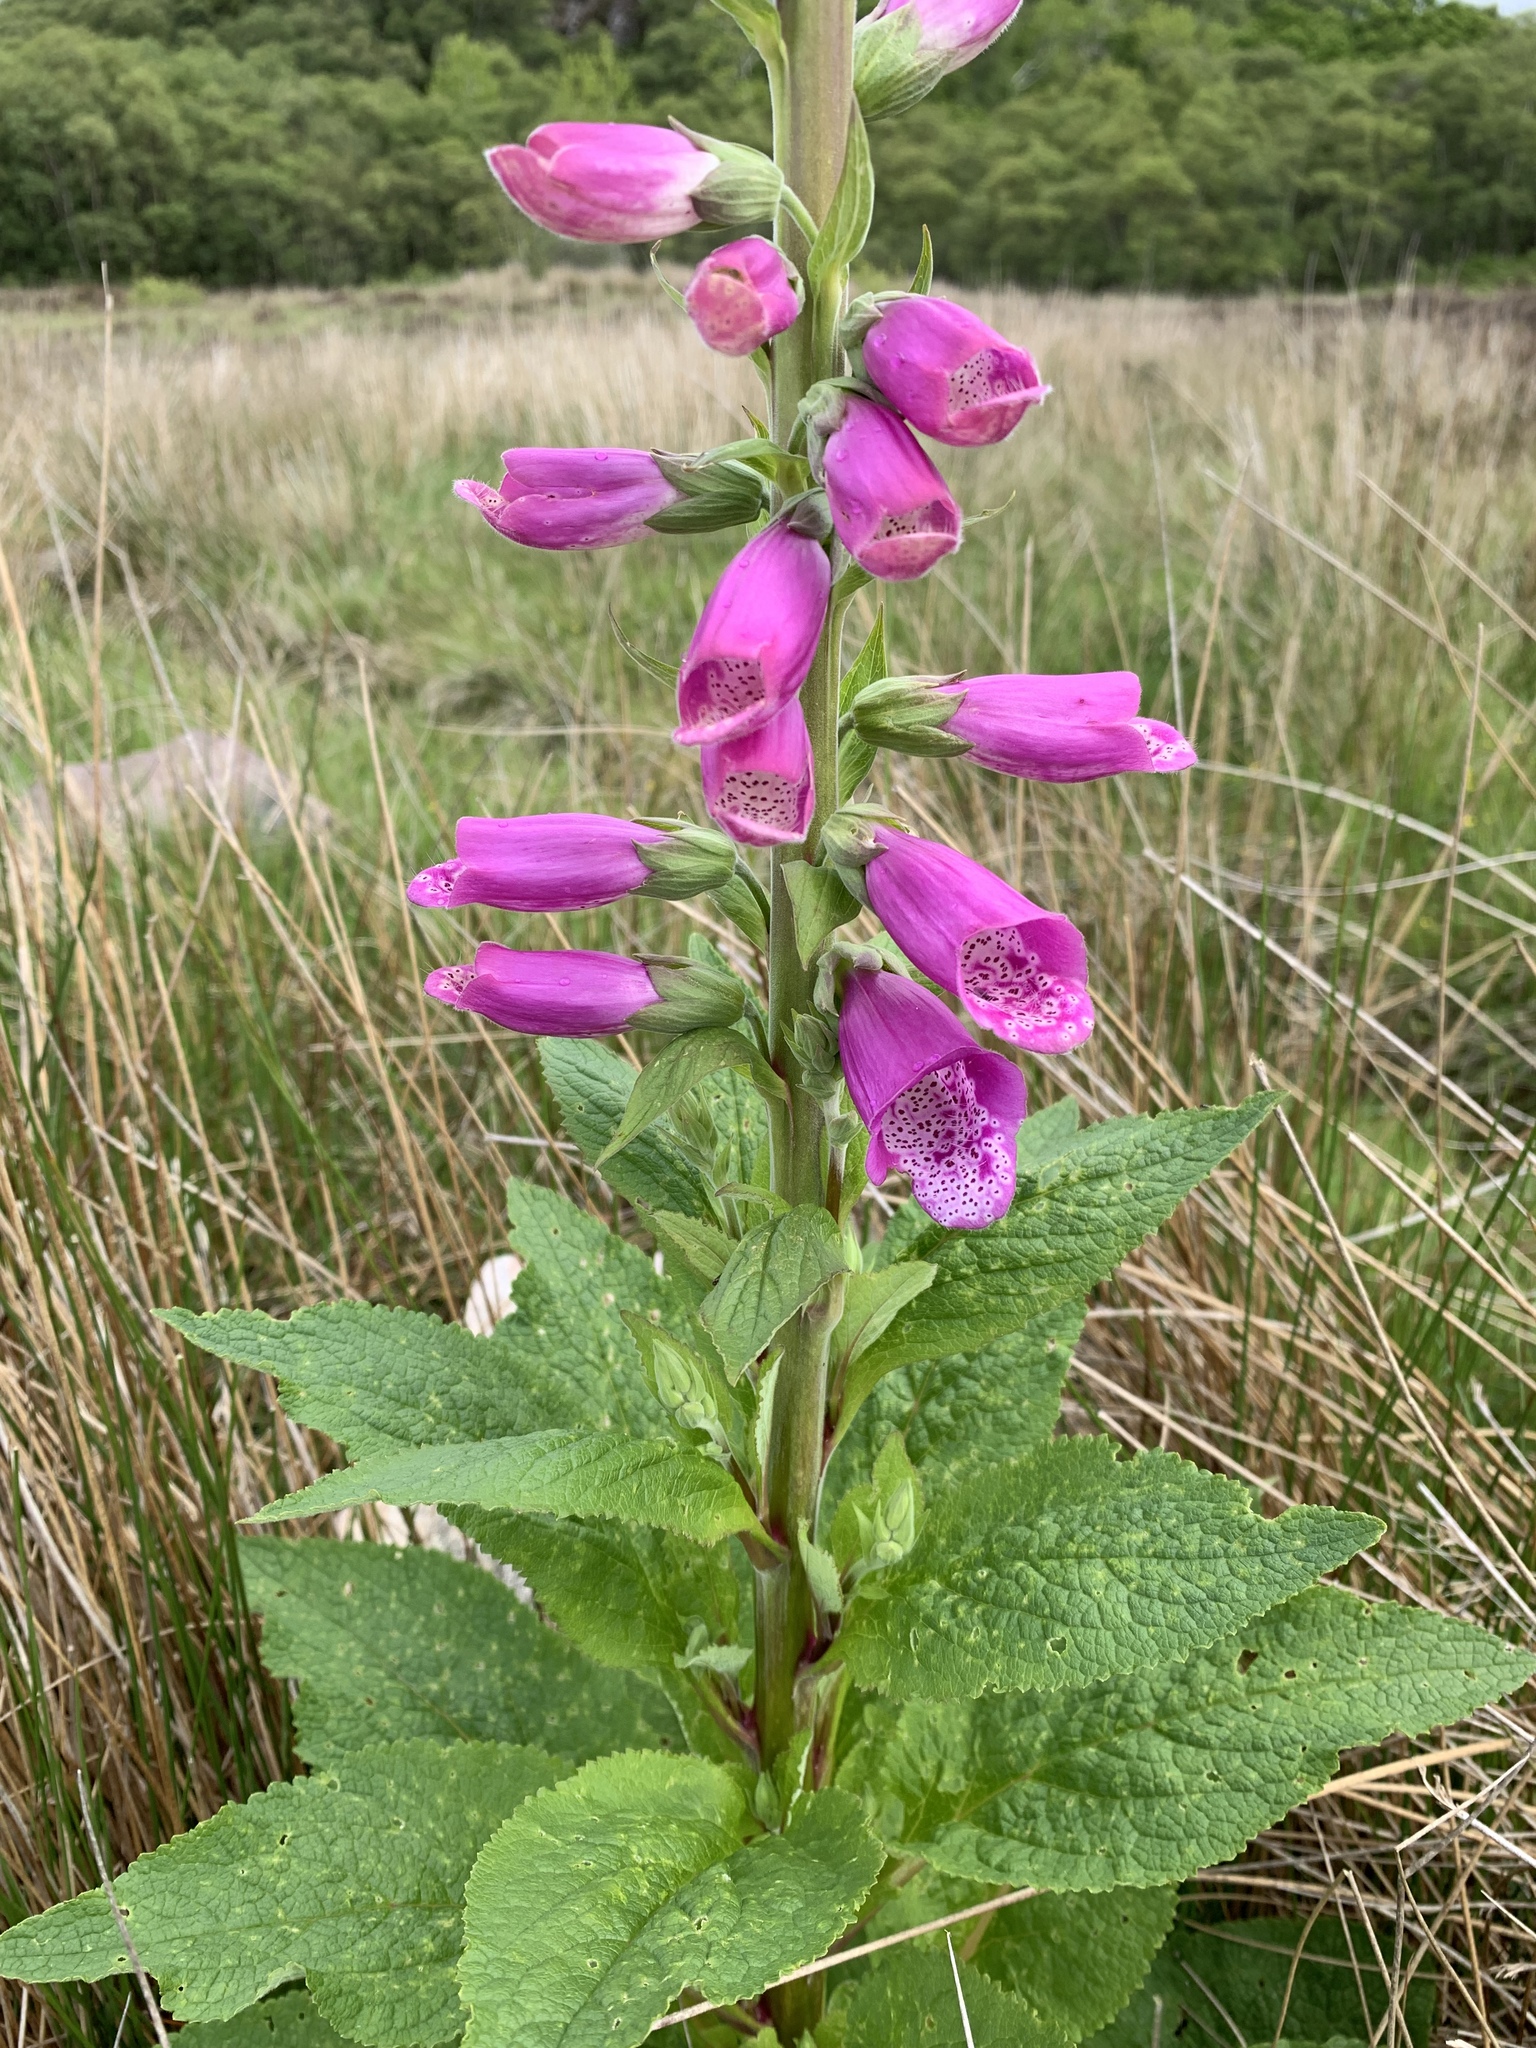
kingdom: Plantae
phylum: Tracheophyta
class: Magnoliopsida
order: Lamiales
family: Plantaginaceae
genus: Digitalis
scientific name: Digitalis purpurea
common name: Foxglove
